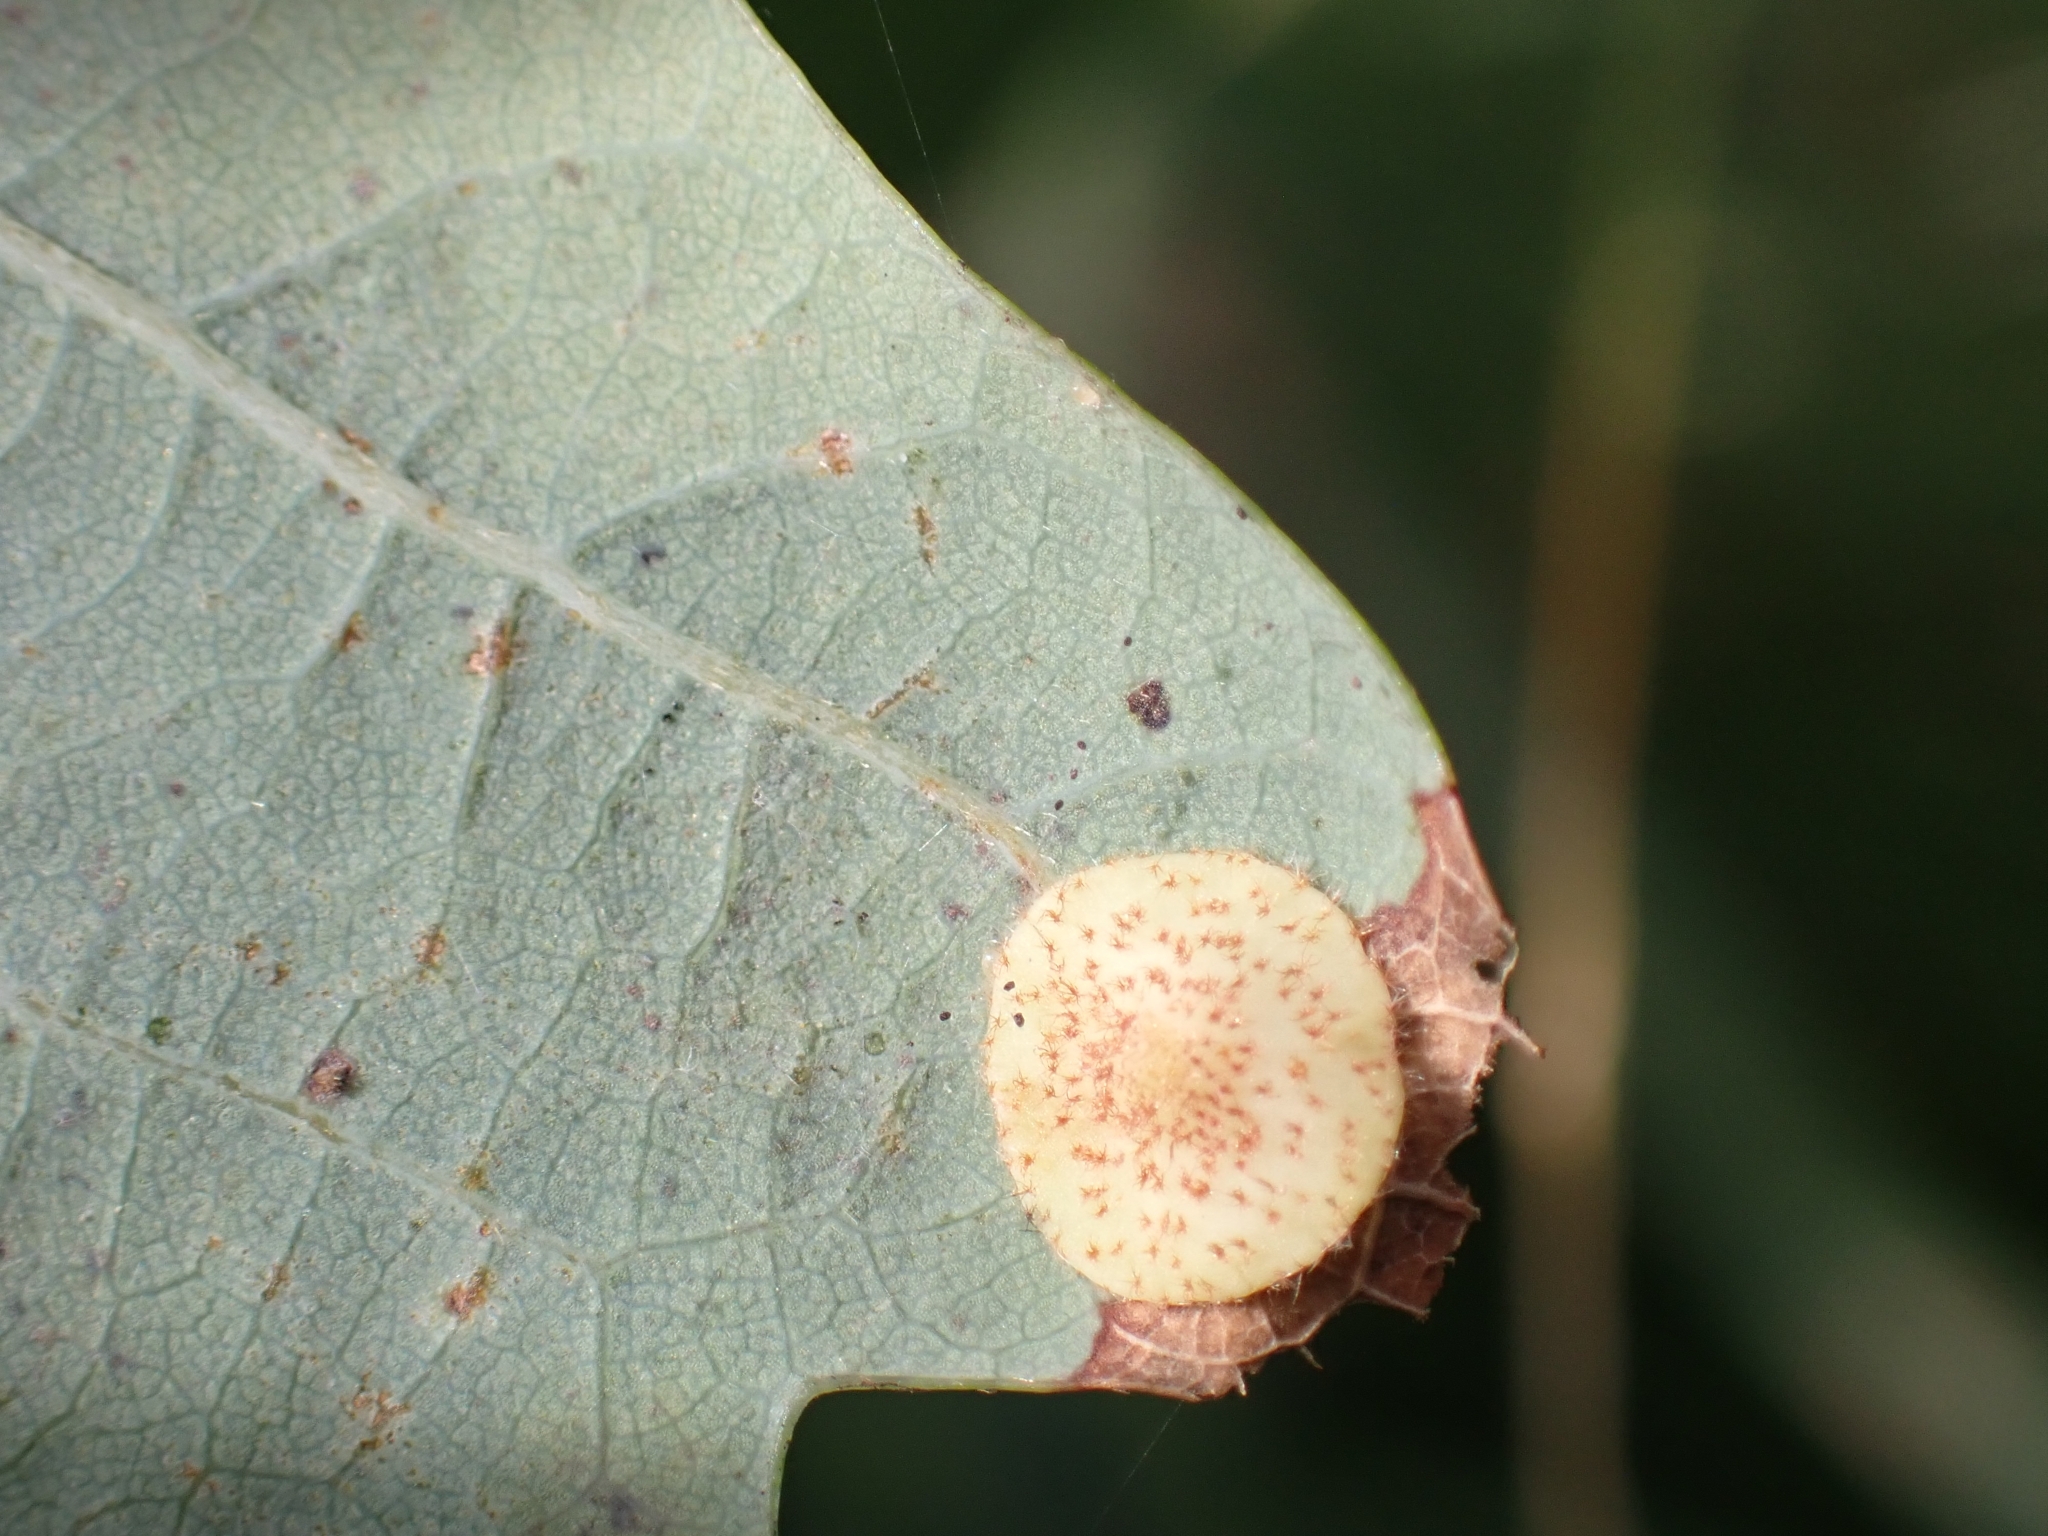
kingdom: Animalia
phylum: Arthropoda
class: Insecta
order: Hymenoptera
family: Cynipidae
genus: Neuroterus
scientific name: Neuroterus quercusbaccarum
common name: Common spangle gall
